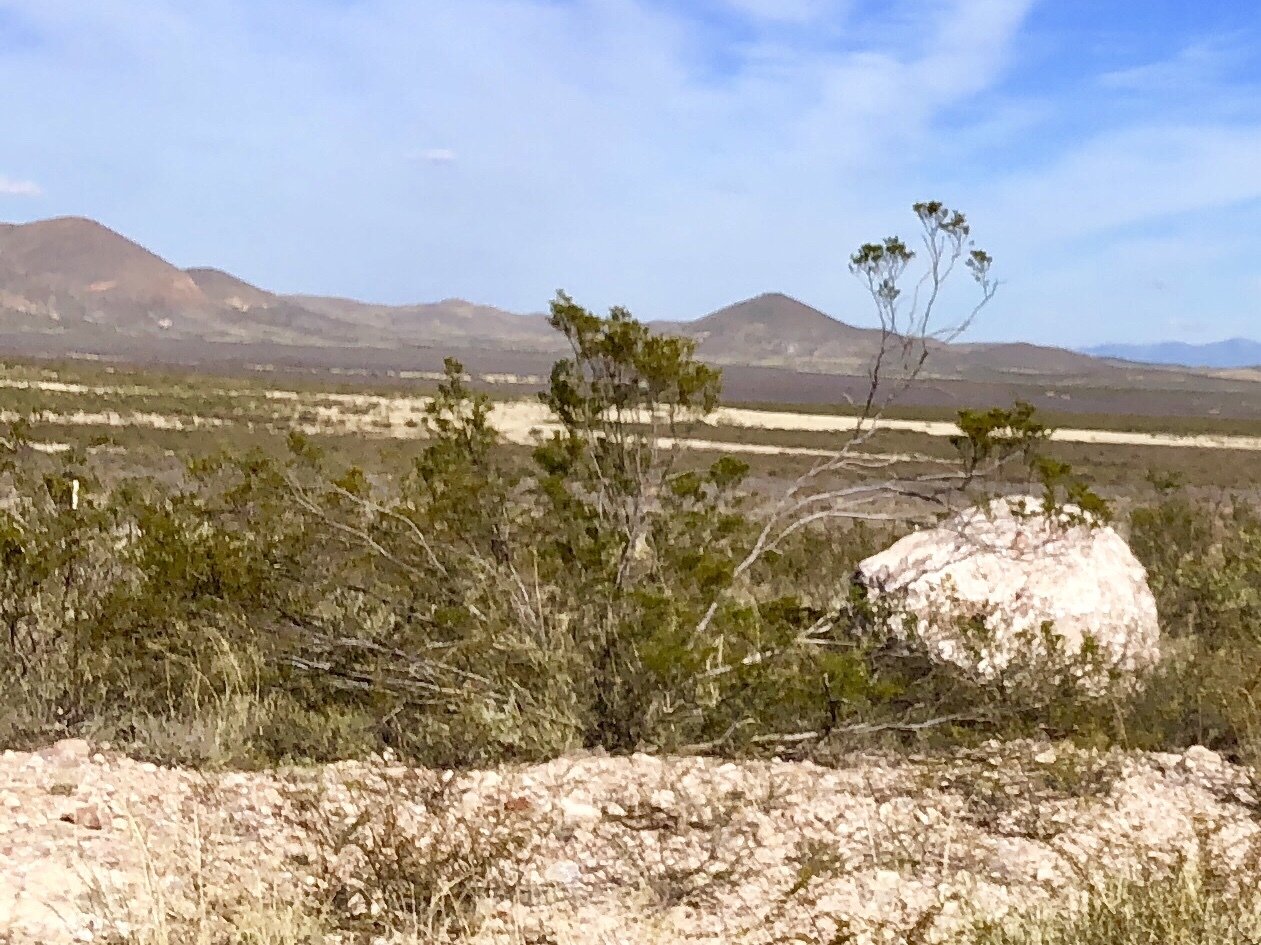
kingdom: Plantae
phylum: Tracheophyta
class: Magnoliopsida
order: Zygophyllales
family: Zygophyllaceae
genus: Larrea
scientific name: Larrea tridentata
